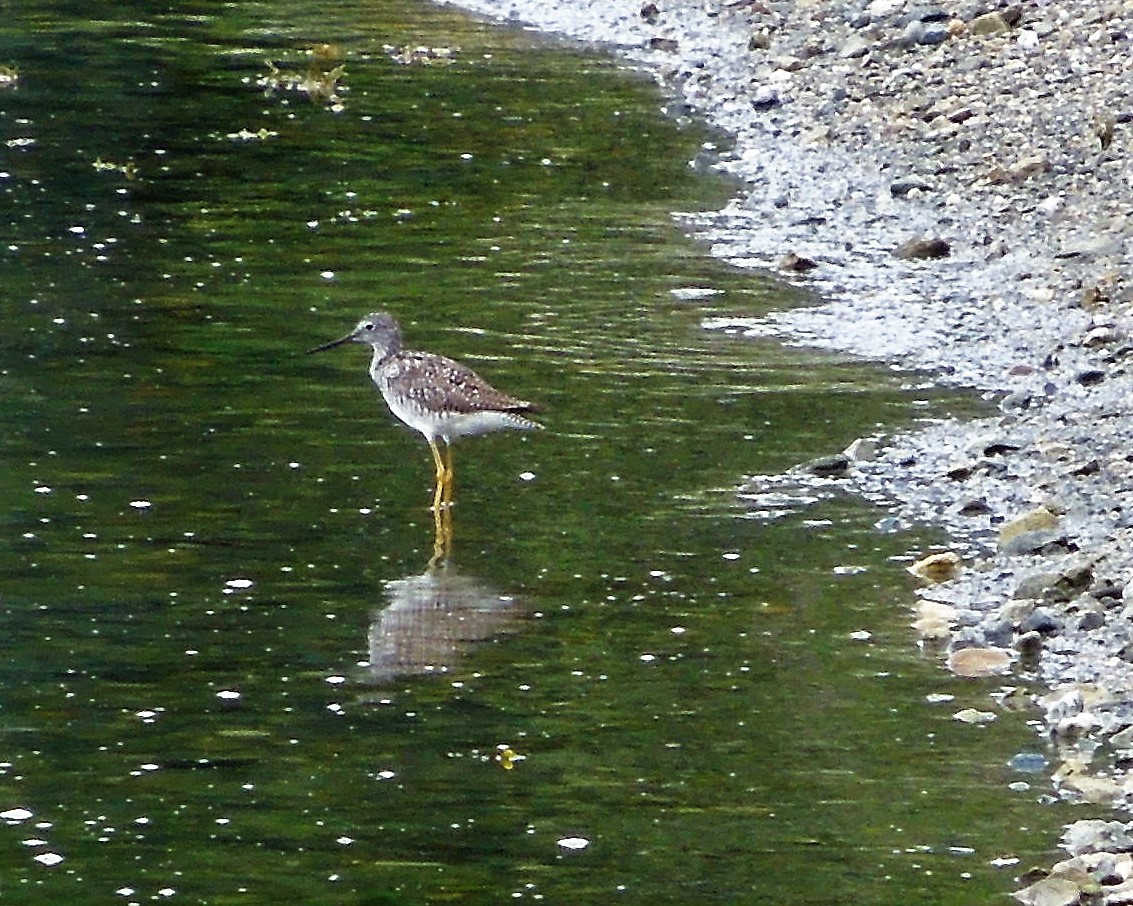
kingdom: Animalia
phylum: Chordata
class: Aves
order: Charadriiformes
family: Scolopacidae
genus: Tringa
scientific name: Tringa melanoleuca
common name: Greater yellowlegs
